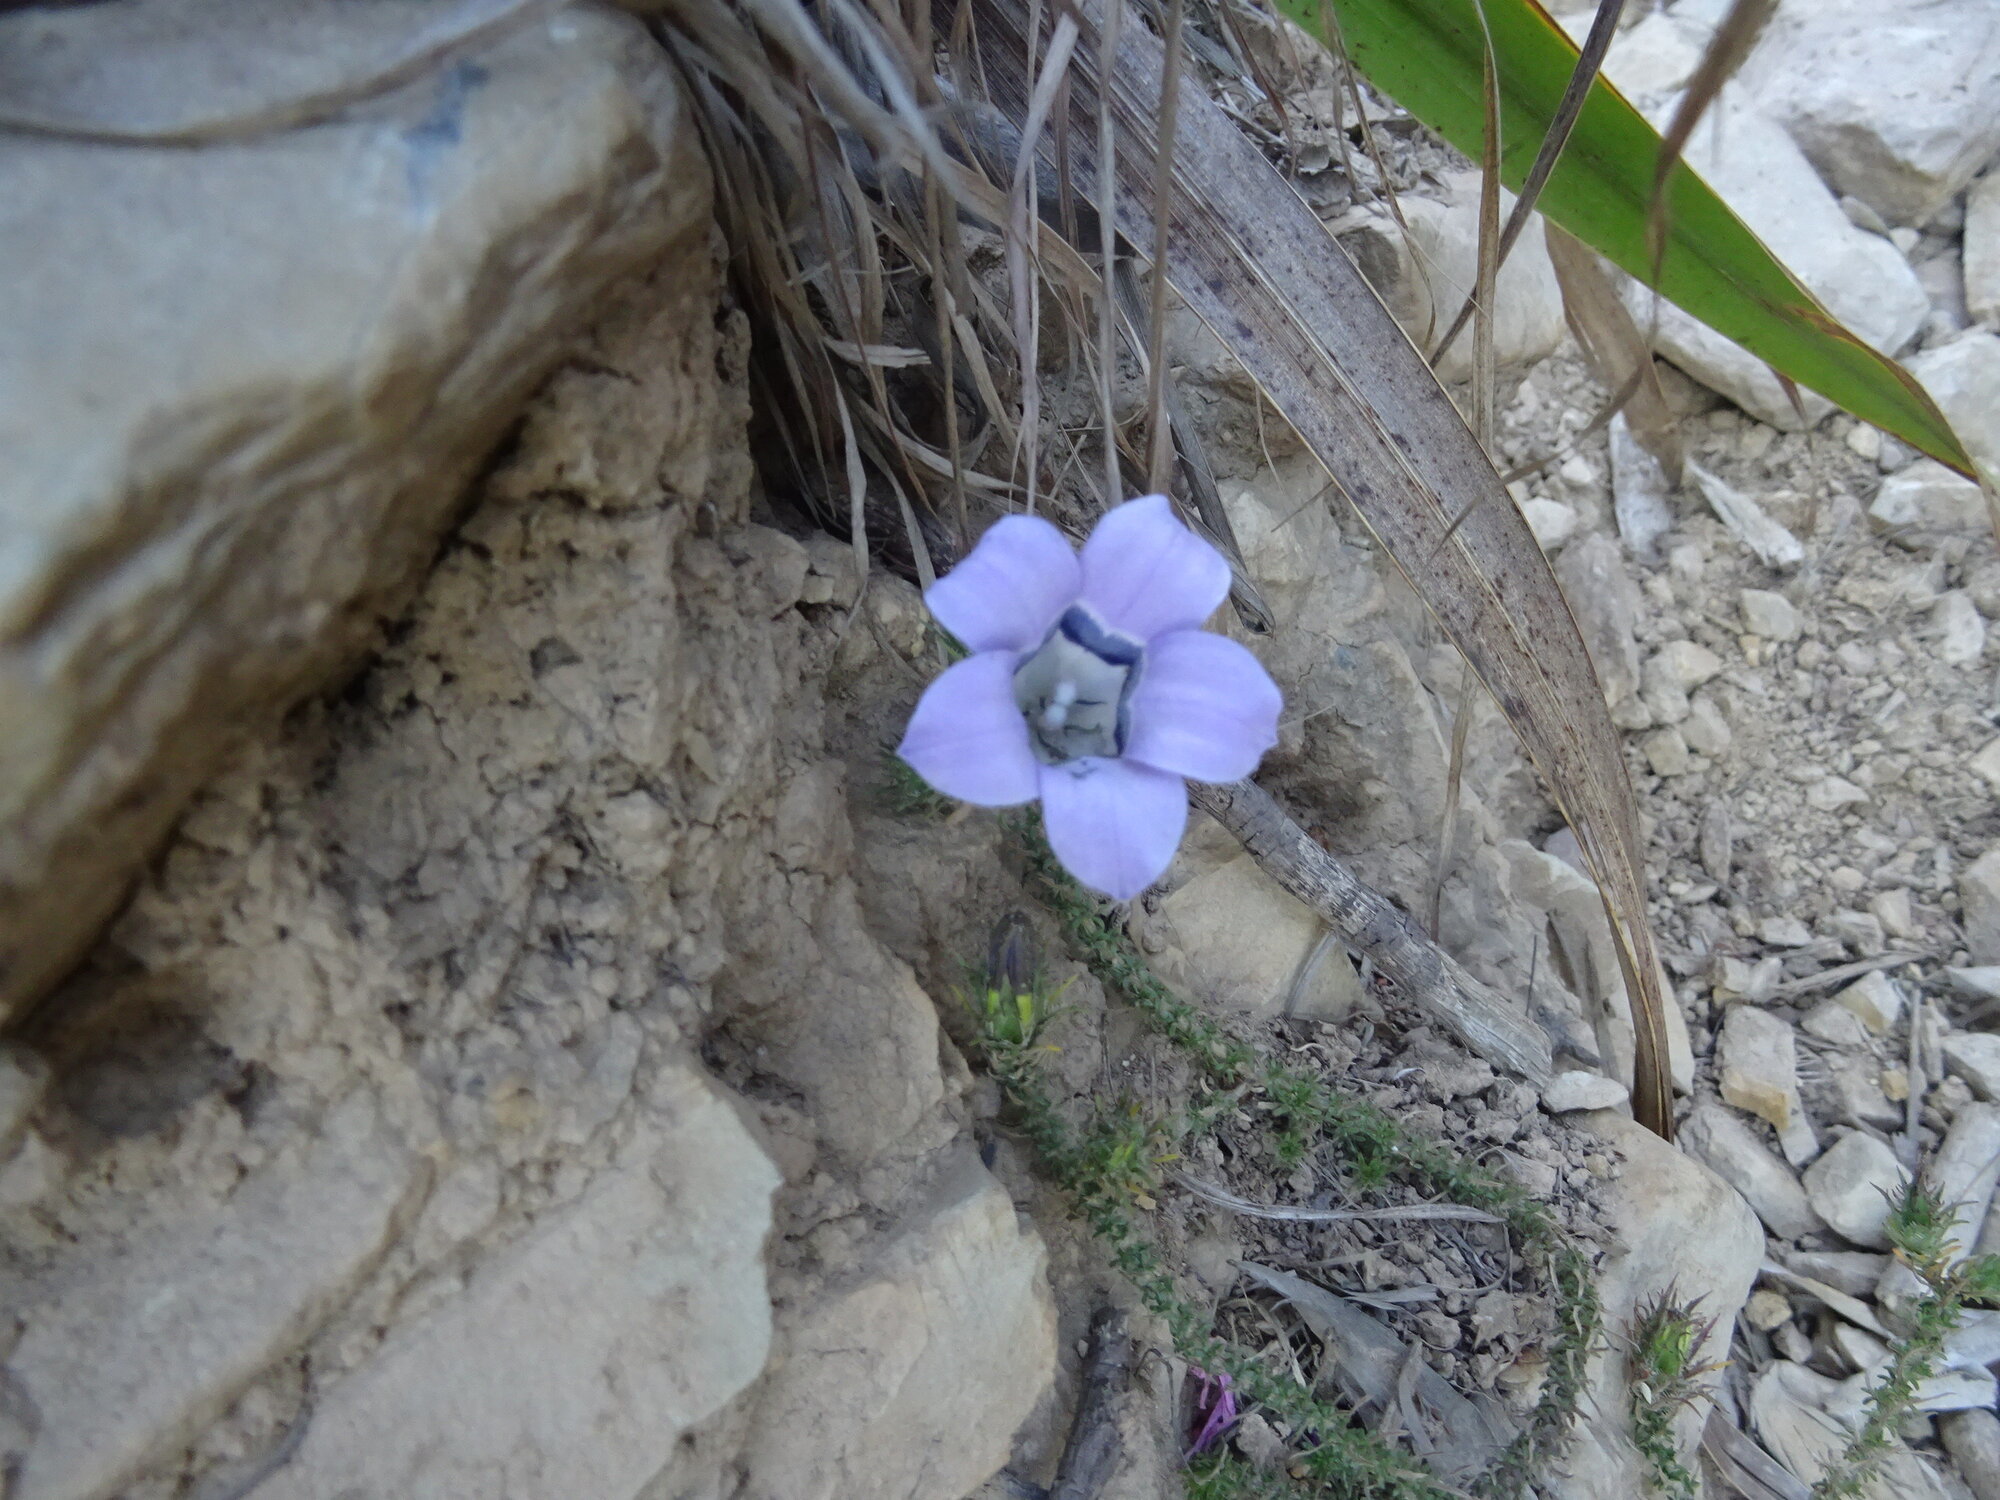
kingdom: Plantae
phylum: Tracheophyta
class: Magnoliopsida
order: Asterales
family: Campanulaceae
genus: Roella
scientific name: Roella ciliata
